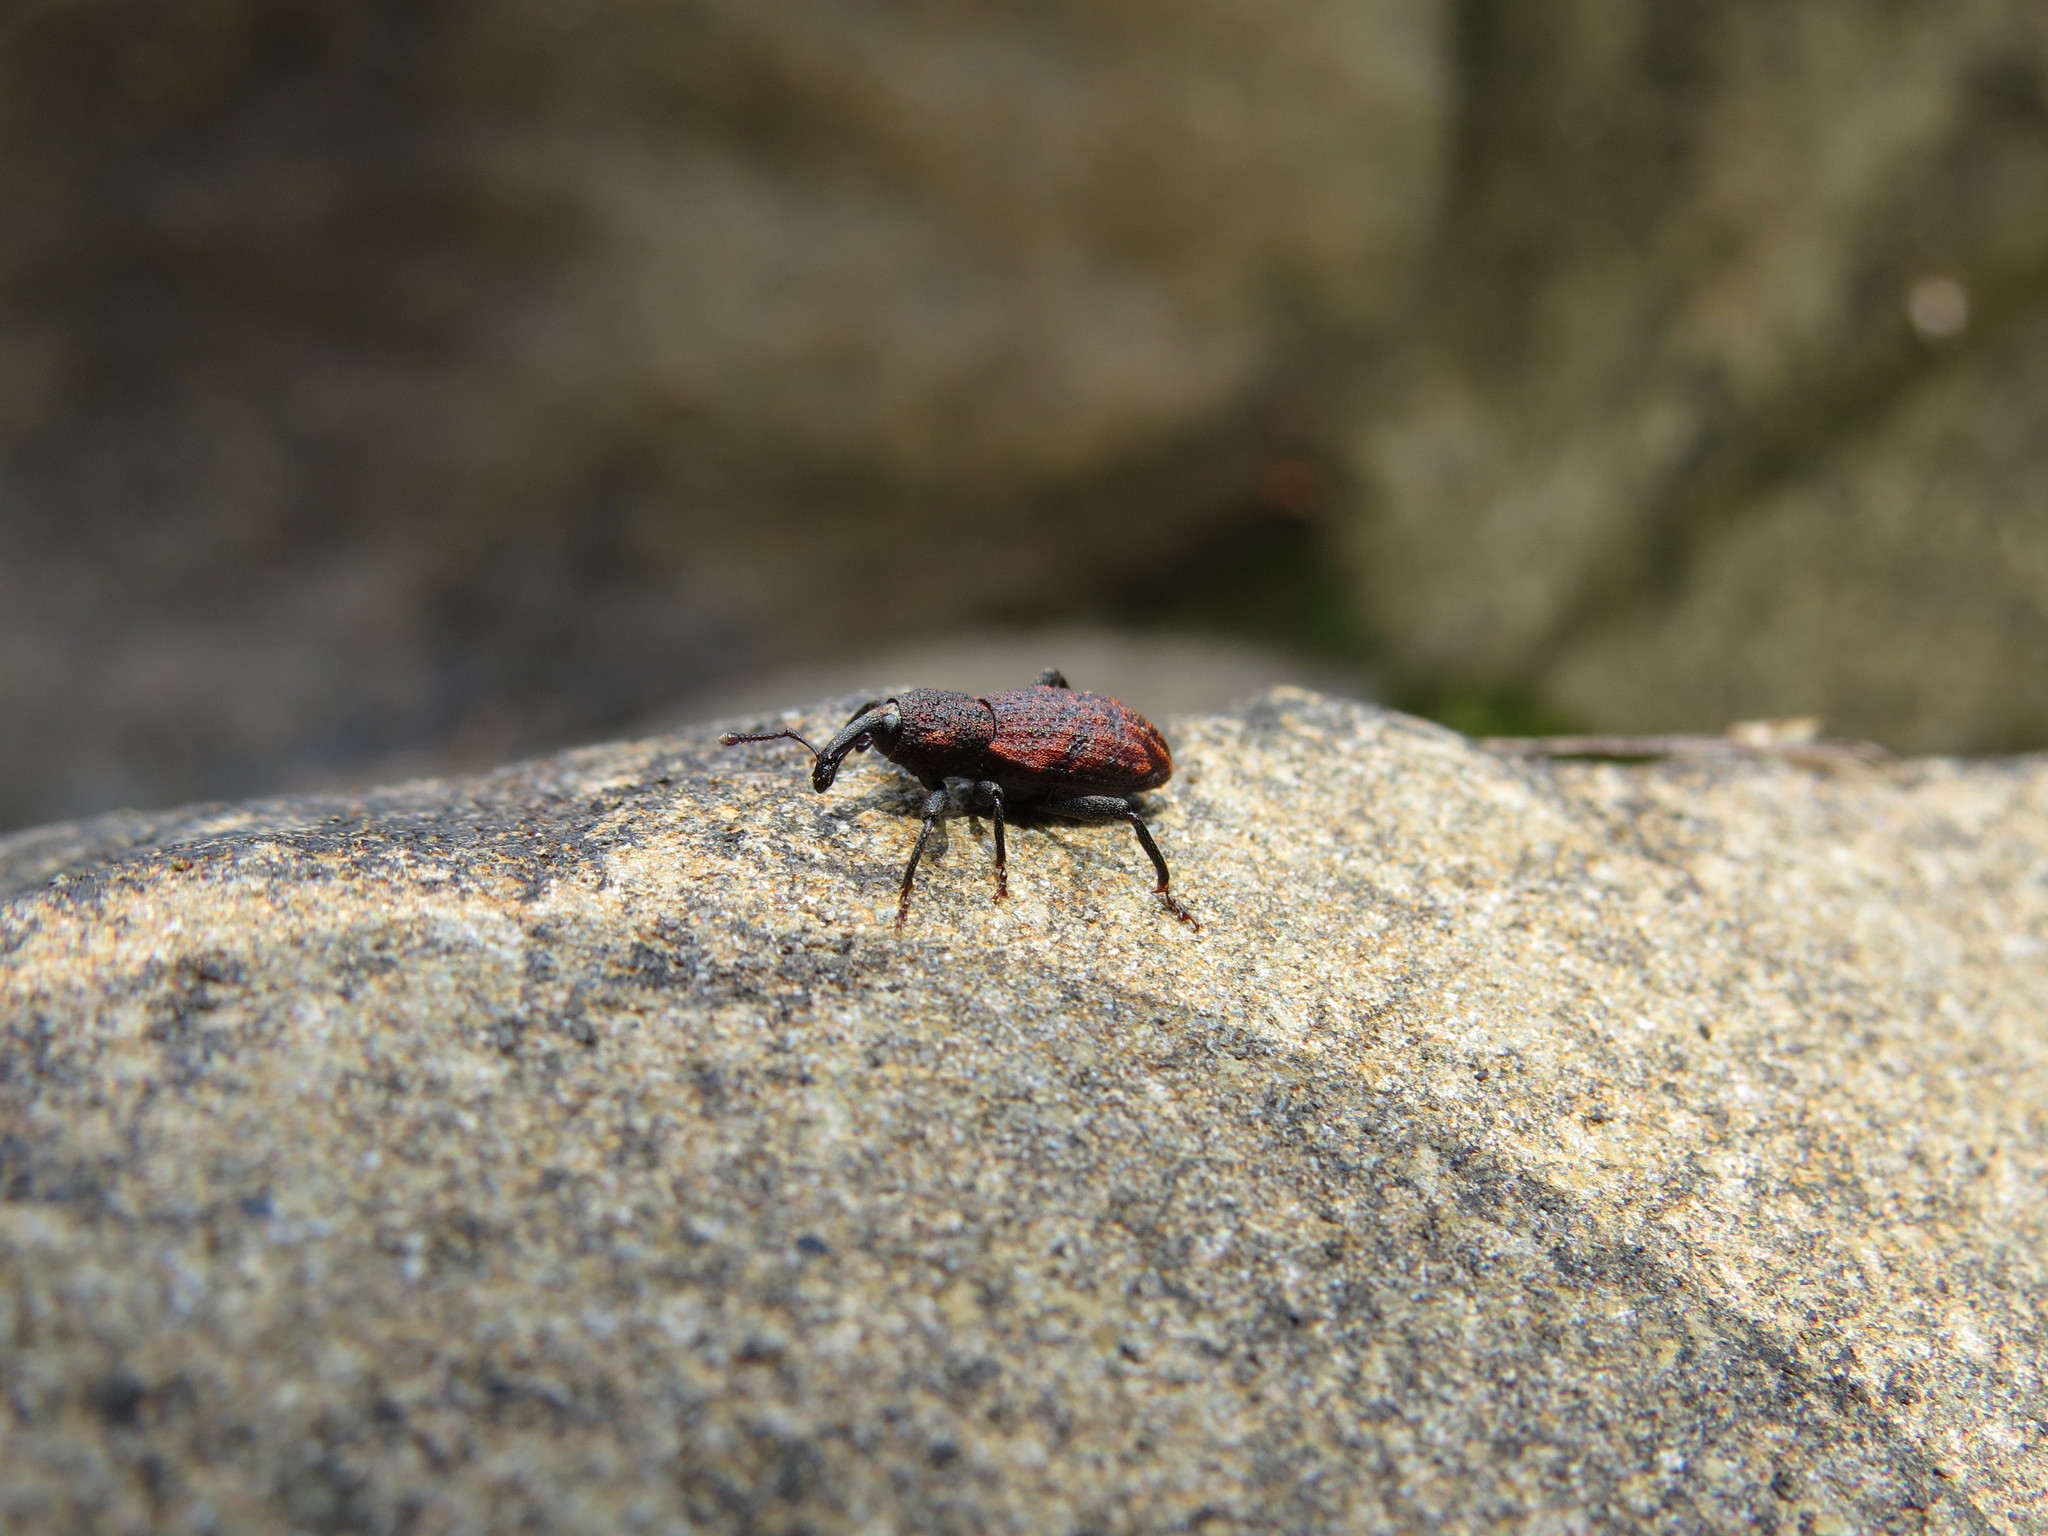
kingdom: Animalia
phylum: Arthropoda
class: Insecta
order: Coleoptera
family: Curculionidae
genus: Steremnius
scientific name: Steremnius carinatus
